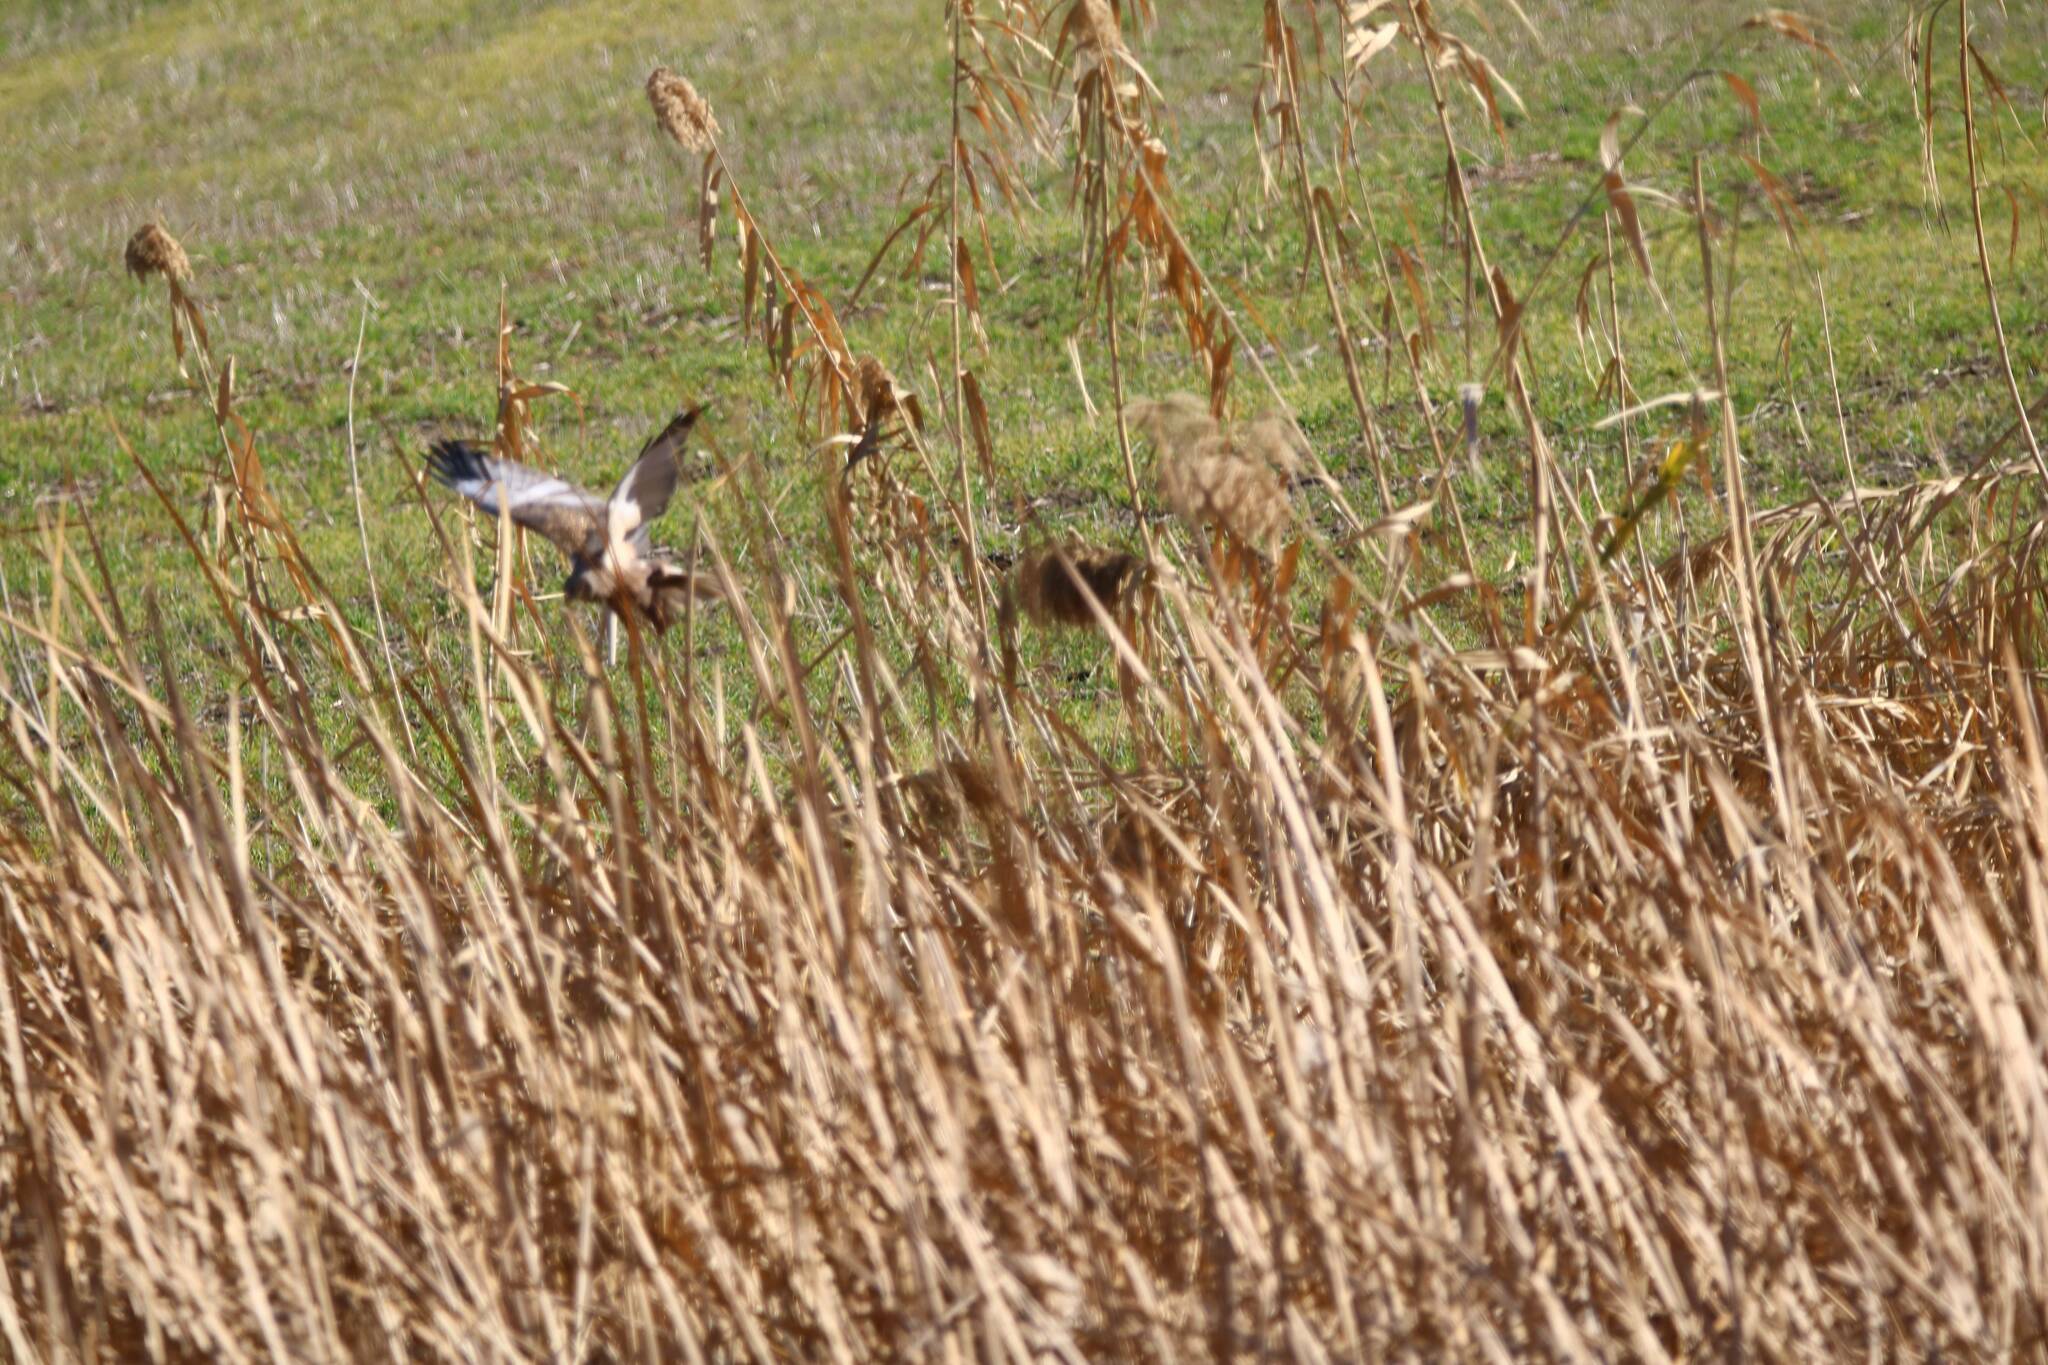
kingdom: Animalia
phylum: Chordata
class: Aves
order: Accipitriformes
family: Accipitridae
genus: Circus
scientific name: Circus aeruginosus
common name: Western marsh harrier
